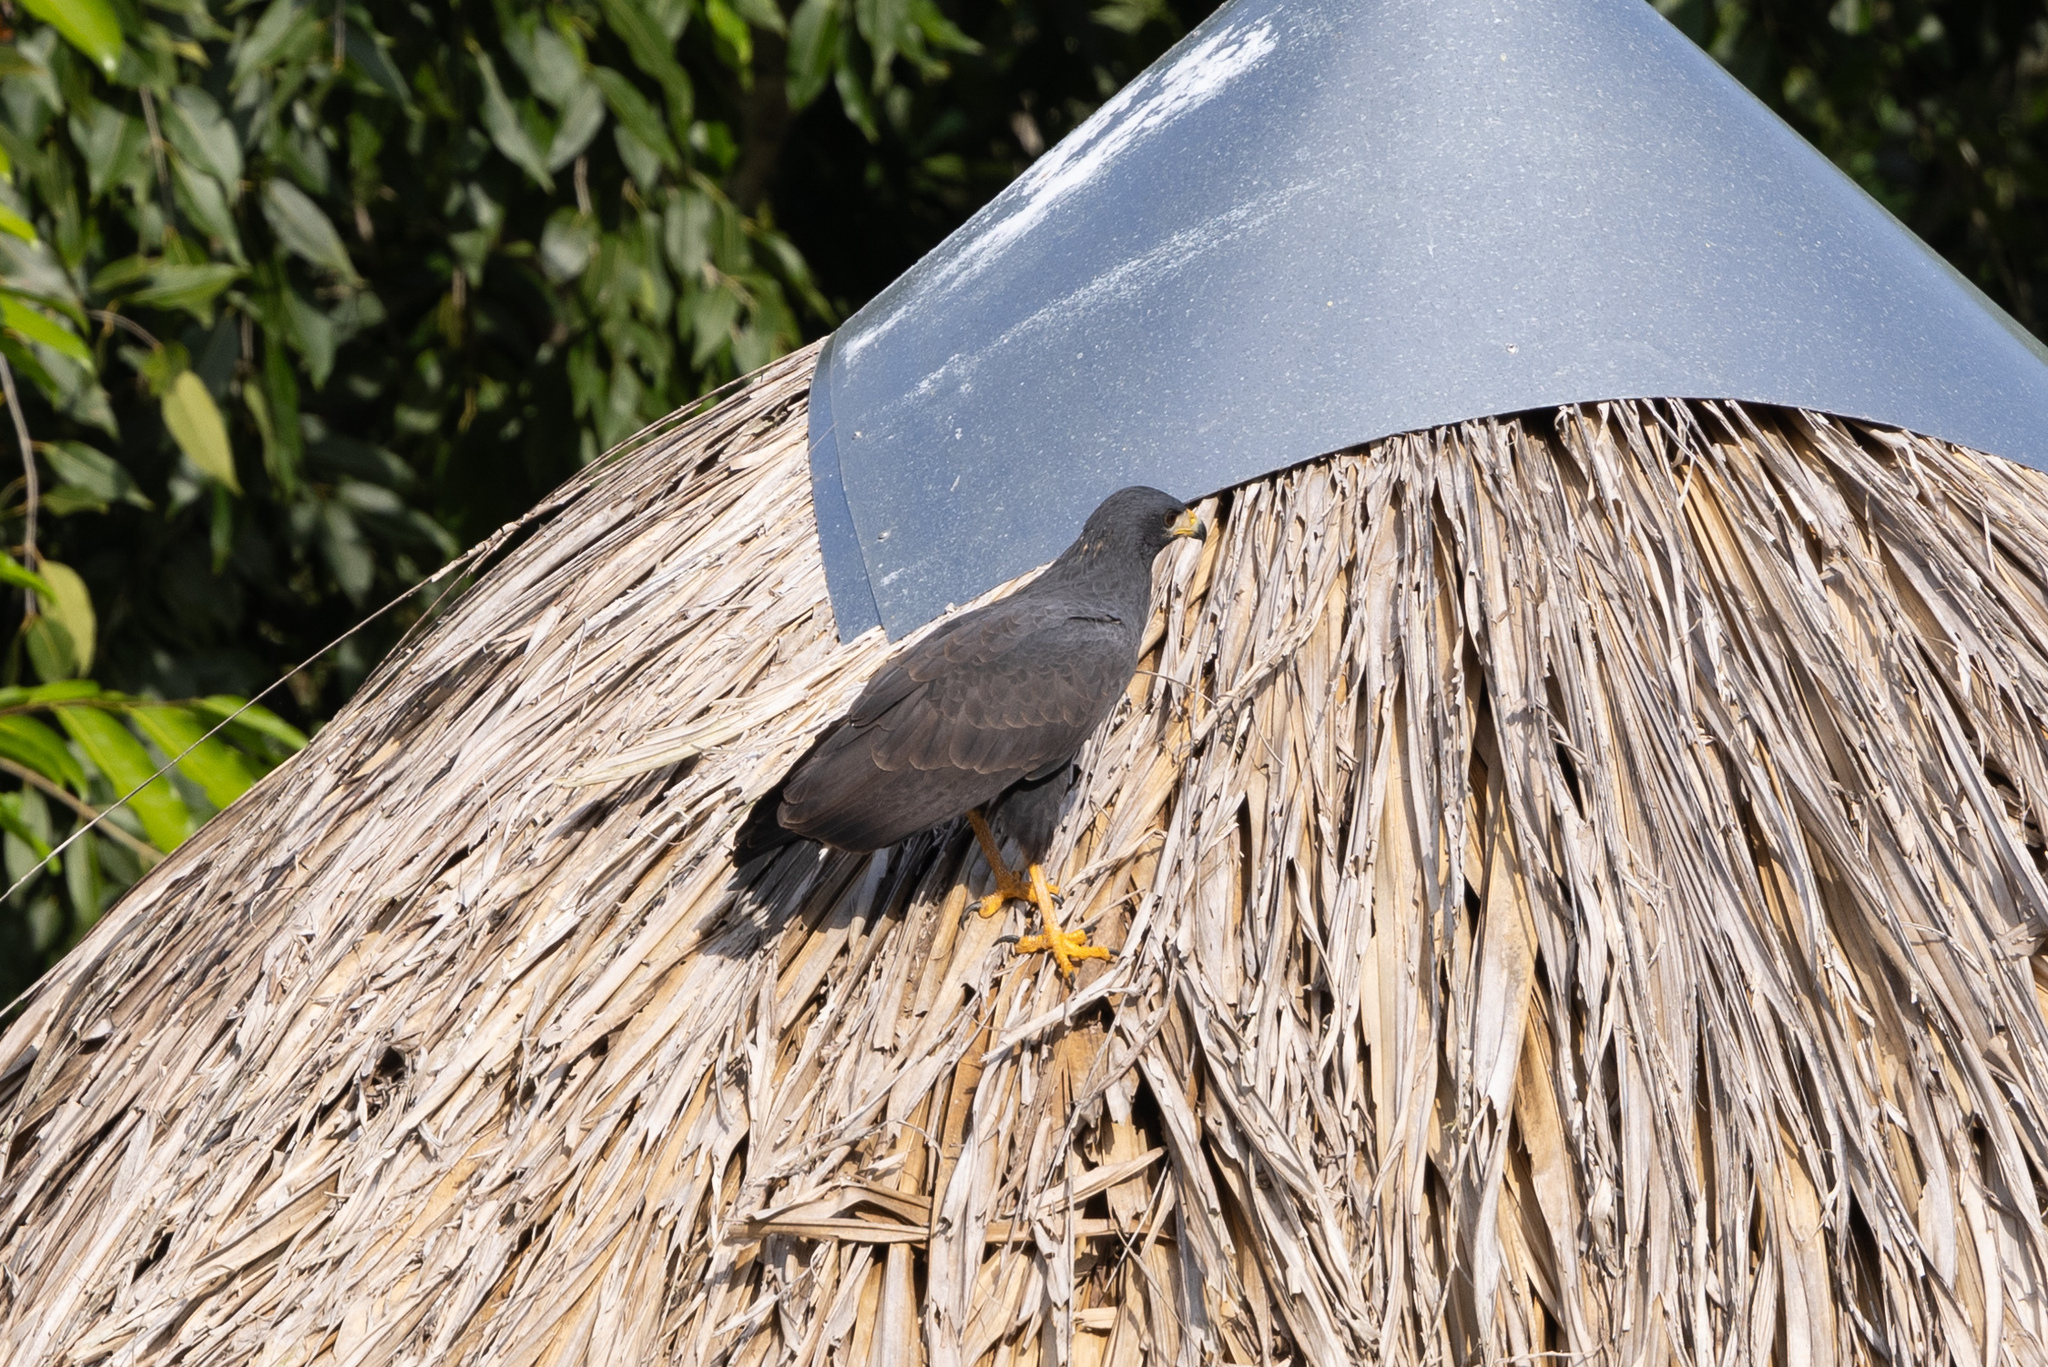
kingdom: Animalia
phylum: Chordata
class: Aves
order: Accipitriformes
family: Accipitridae
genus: Buteogallus
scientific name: Buteogallus anthracinus
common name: Common black hawk
